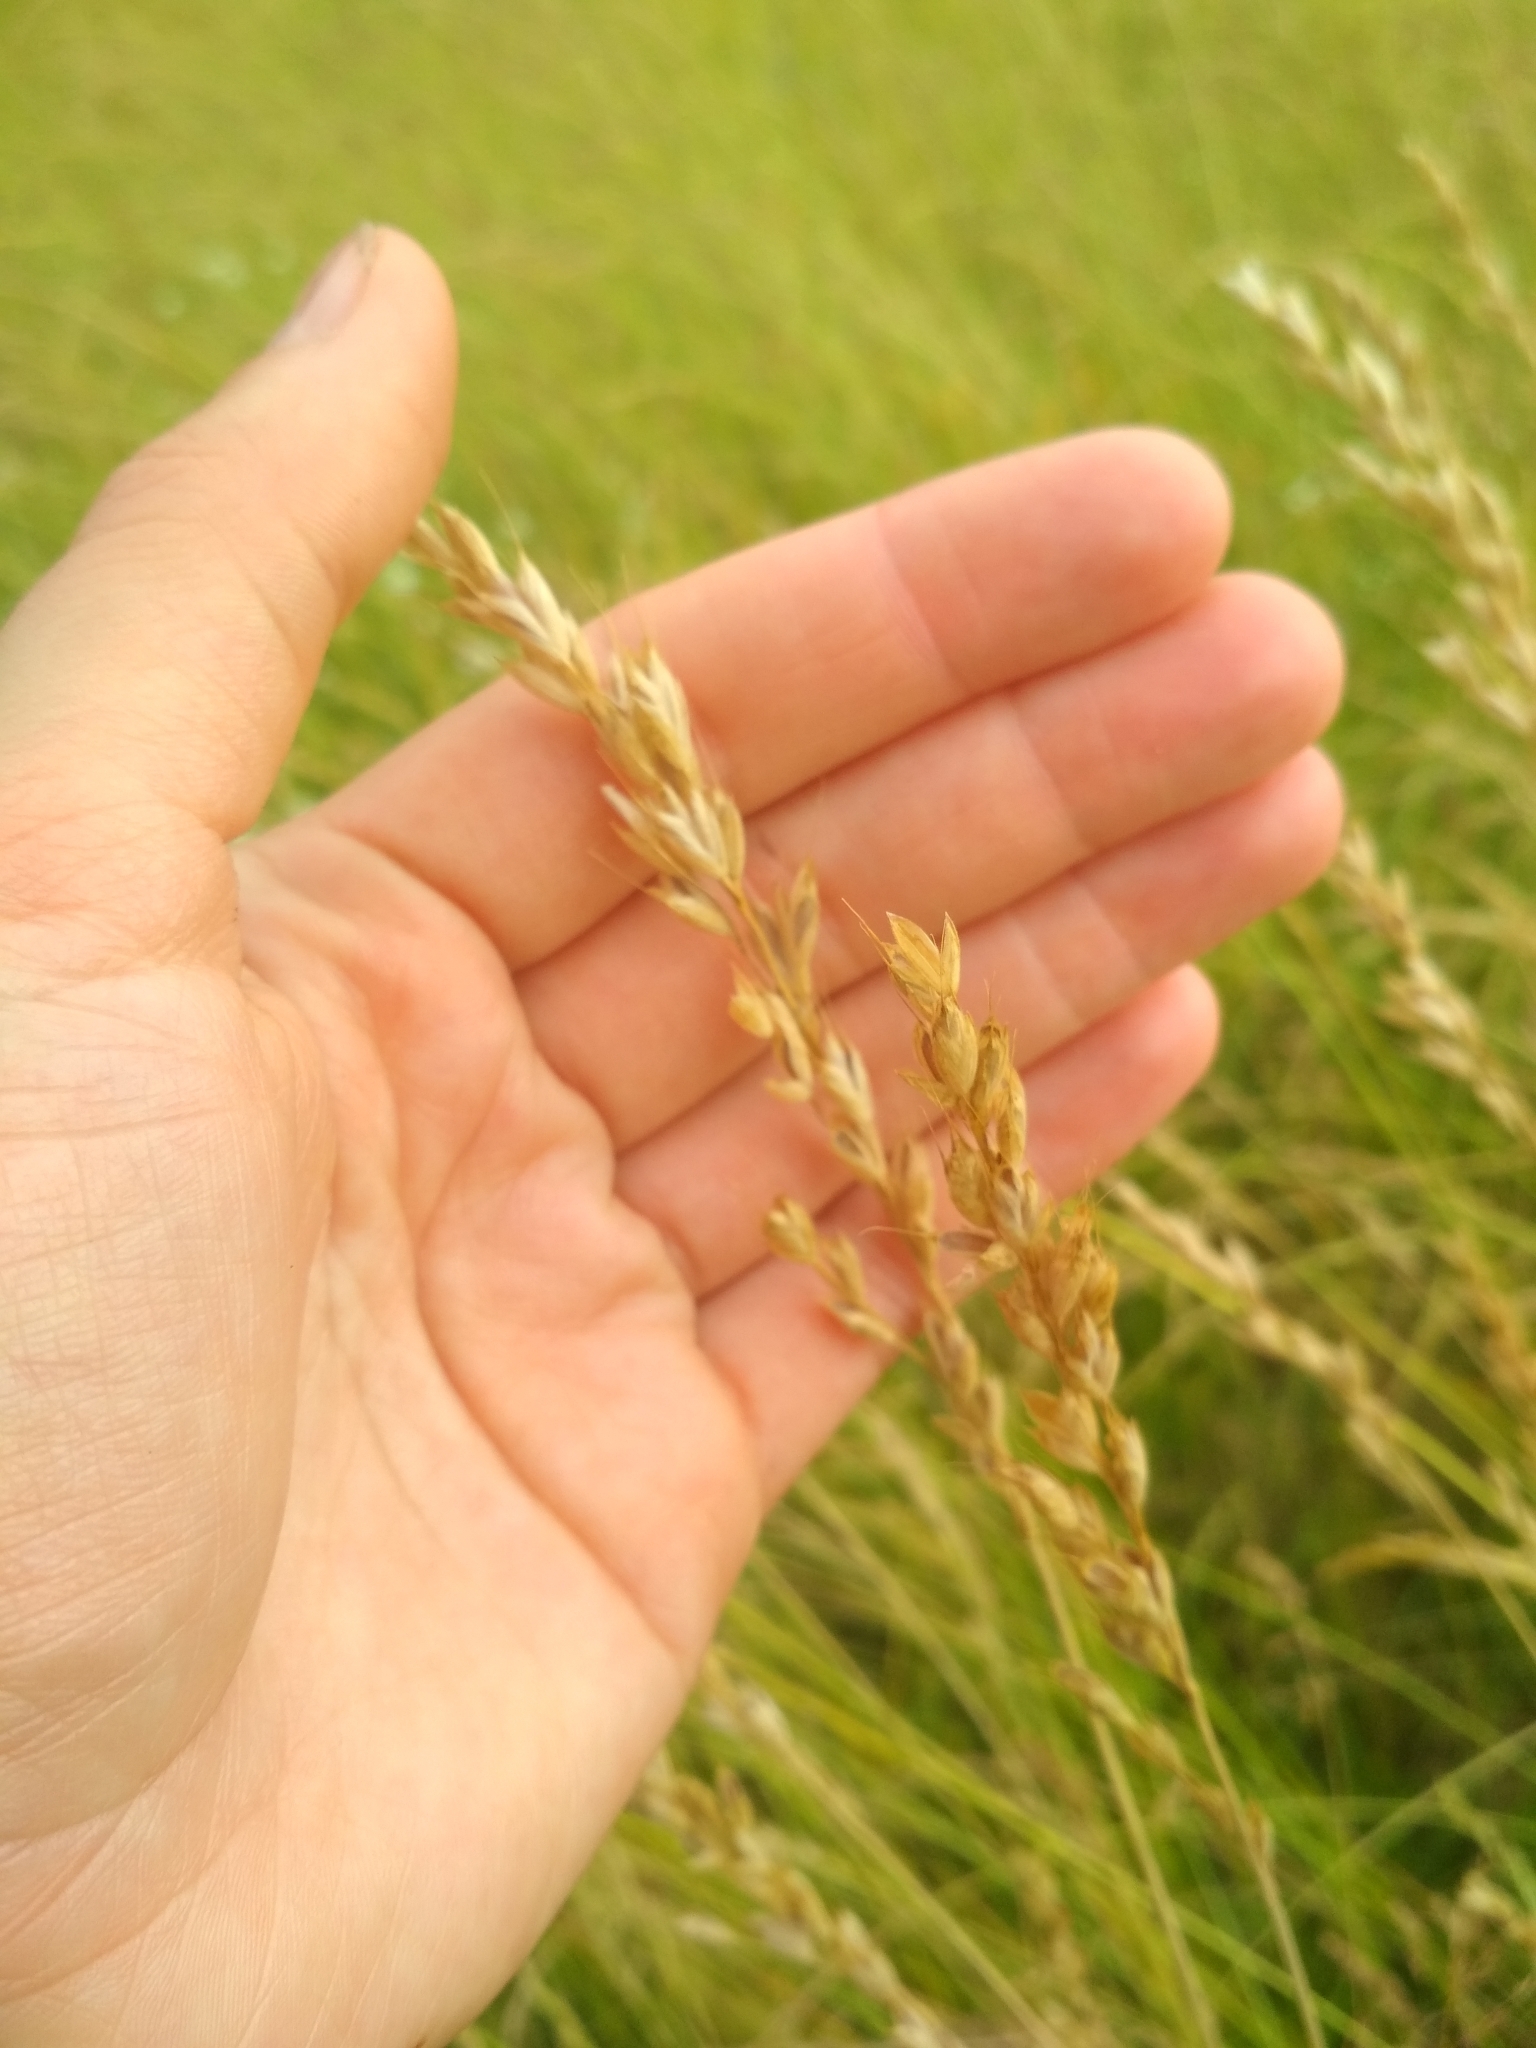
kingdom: Plantae
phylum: Tracheophyta
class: Liliopsida
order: Poales
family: Poaceae
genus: Bromus
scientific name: Bromus hordeaceus
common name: Soft brome
